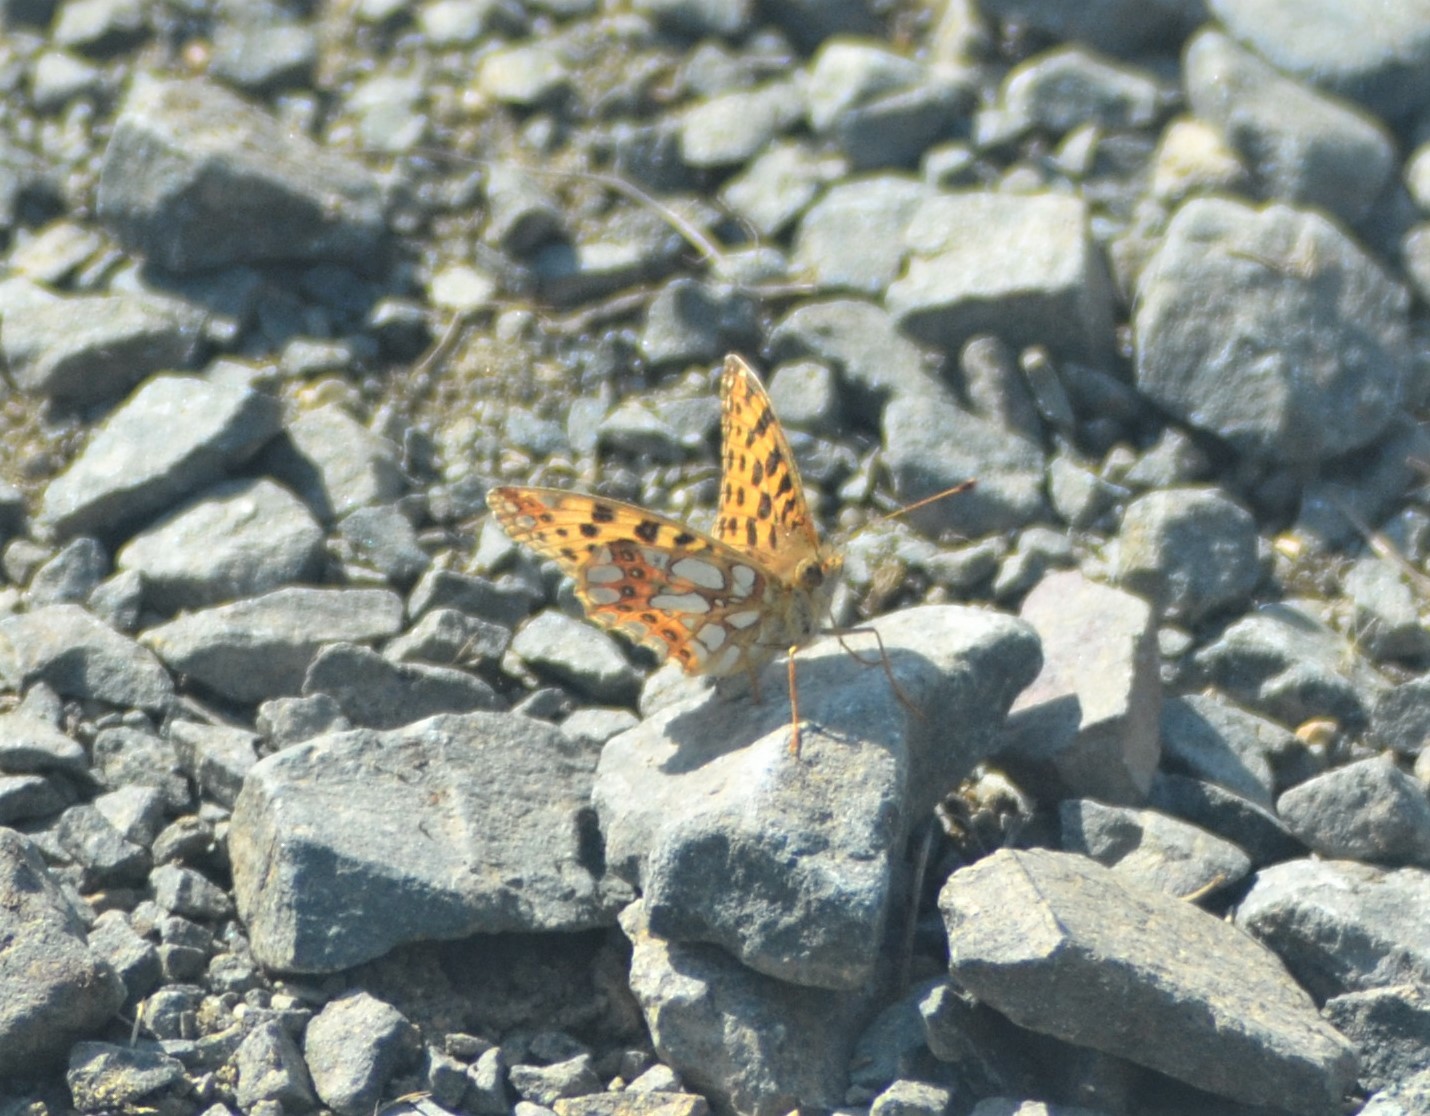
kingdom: Animalia
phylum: Arthropoda
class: Insecta
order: Lepidoptera
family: Nymphalidae
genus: Issoria
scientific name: Issoria lathonia
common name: Queen of spain fritillary
